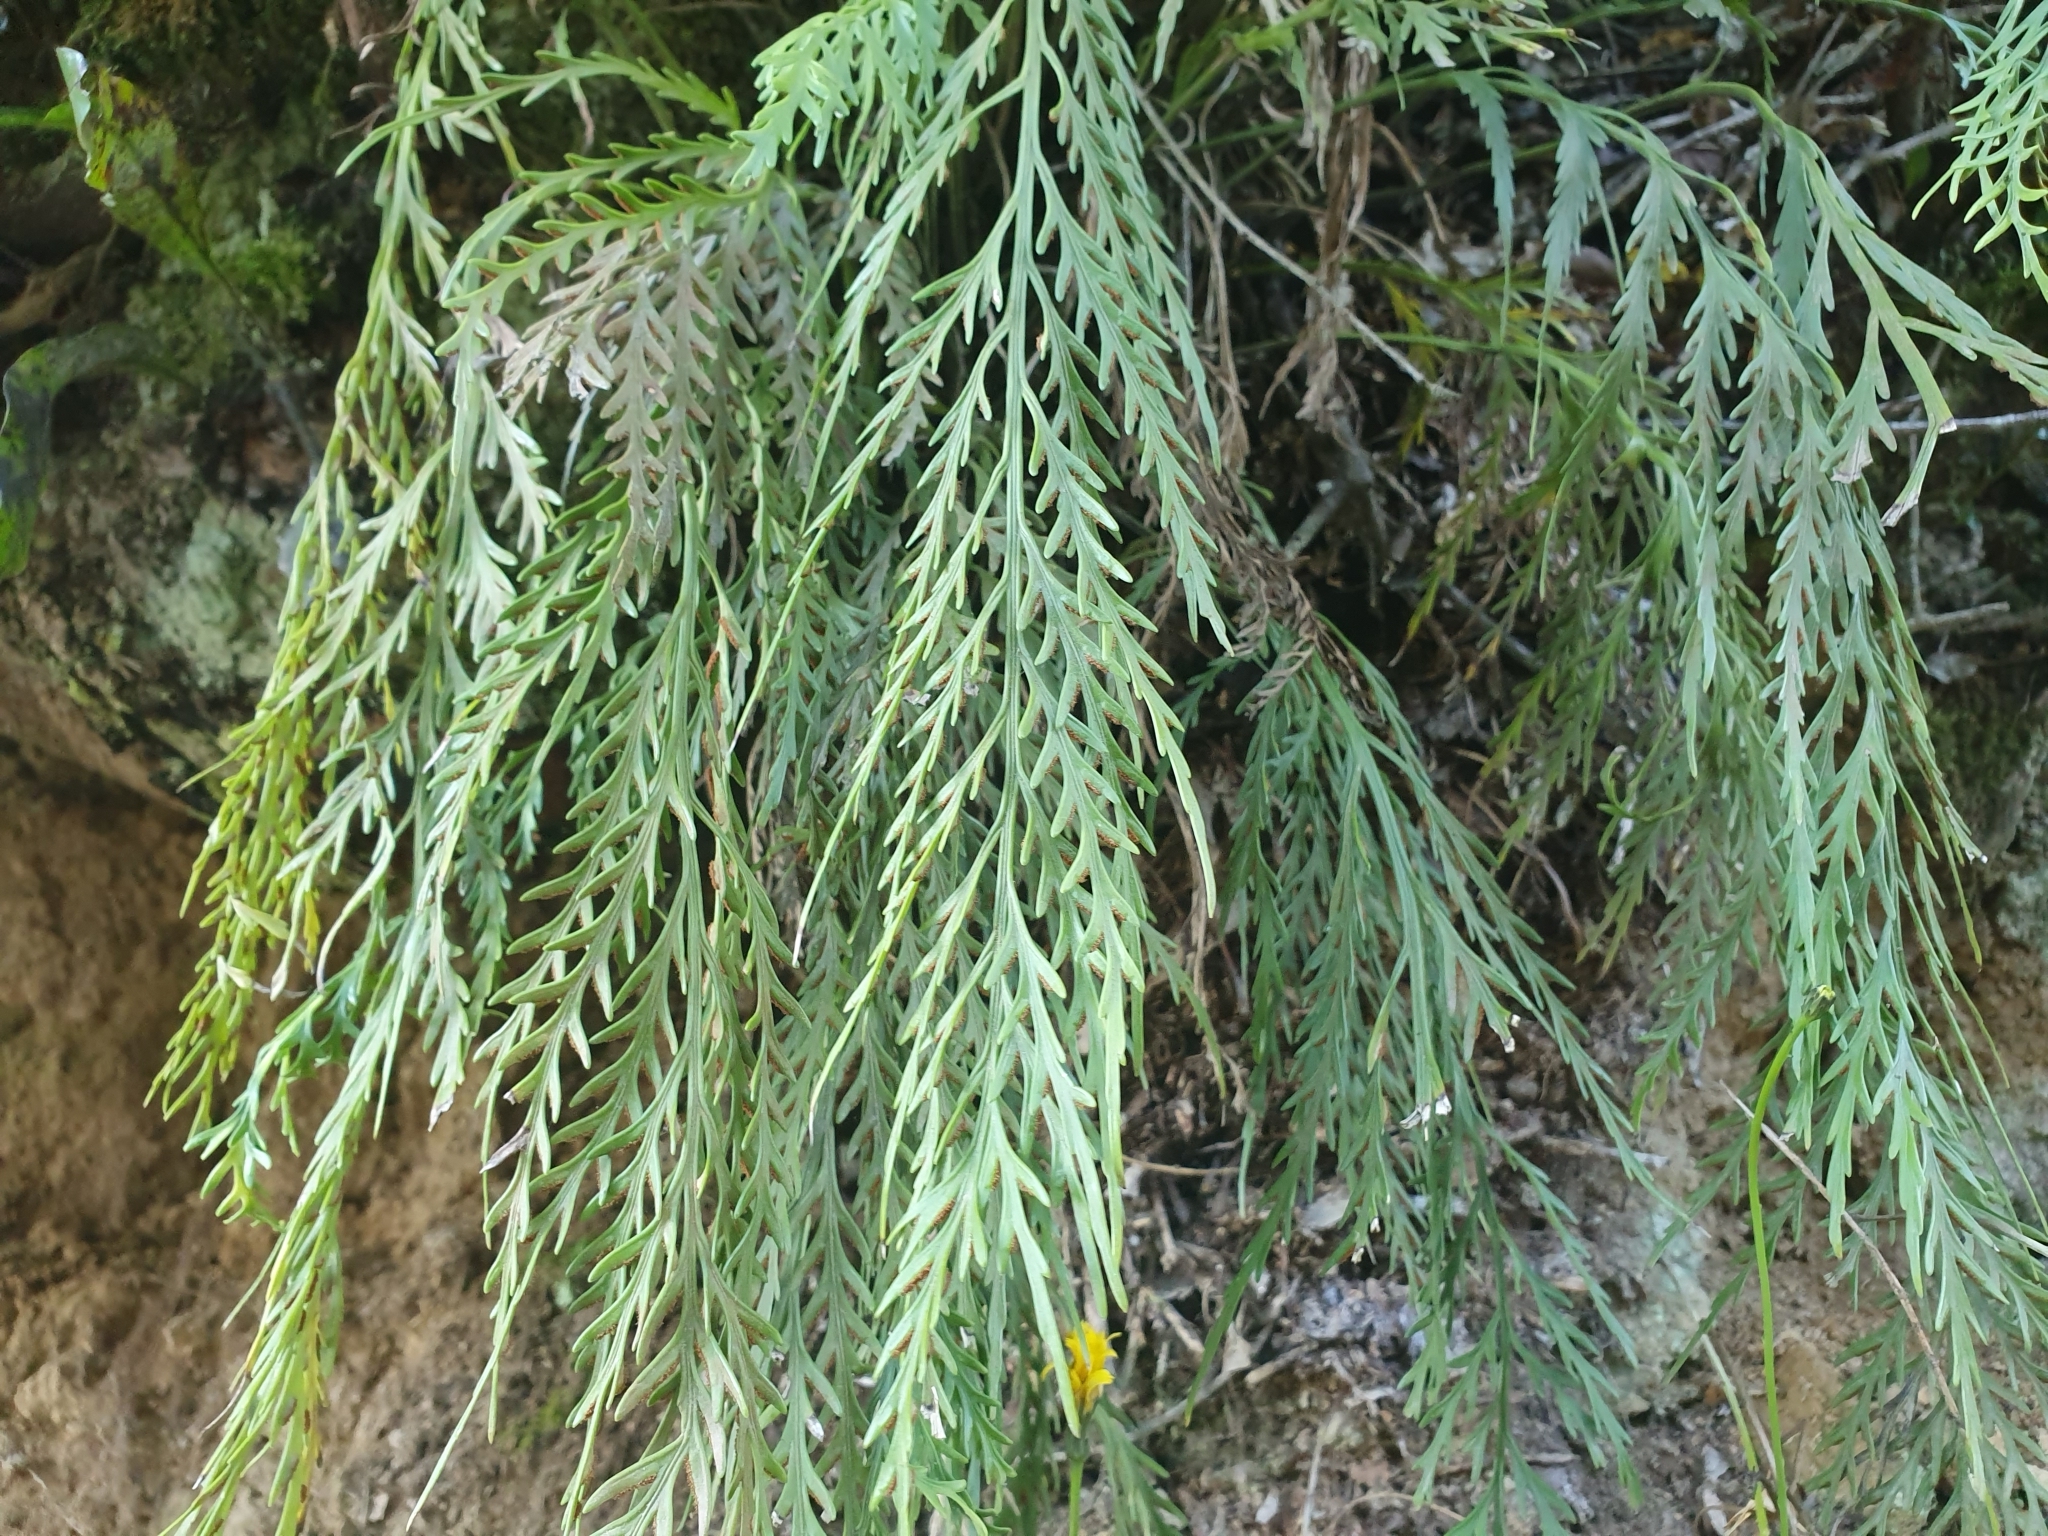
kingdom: Plantae
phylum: Tracheophyta
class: Polypodiopsida
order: Polypodiales
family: Aspleniaceae
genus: Asplenium
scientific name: Asplenium flaccidum
